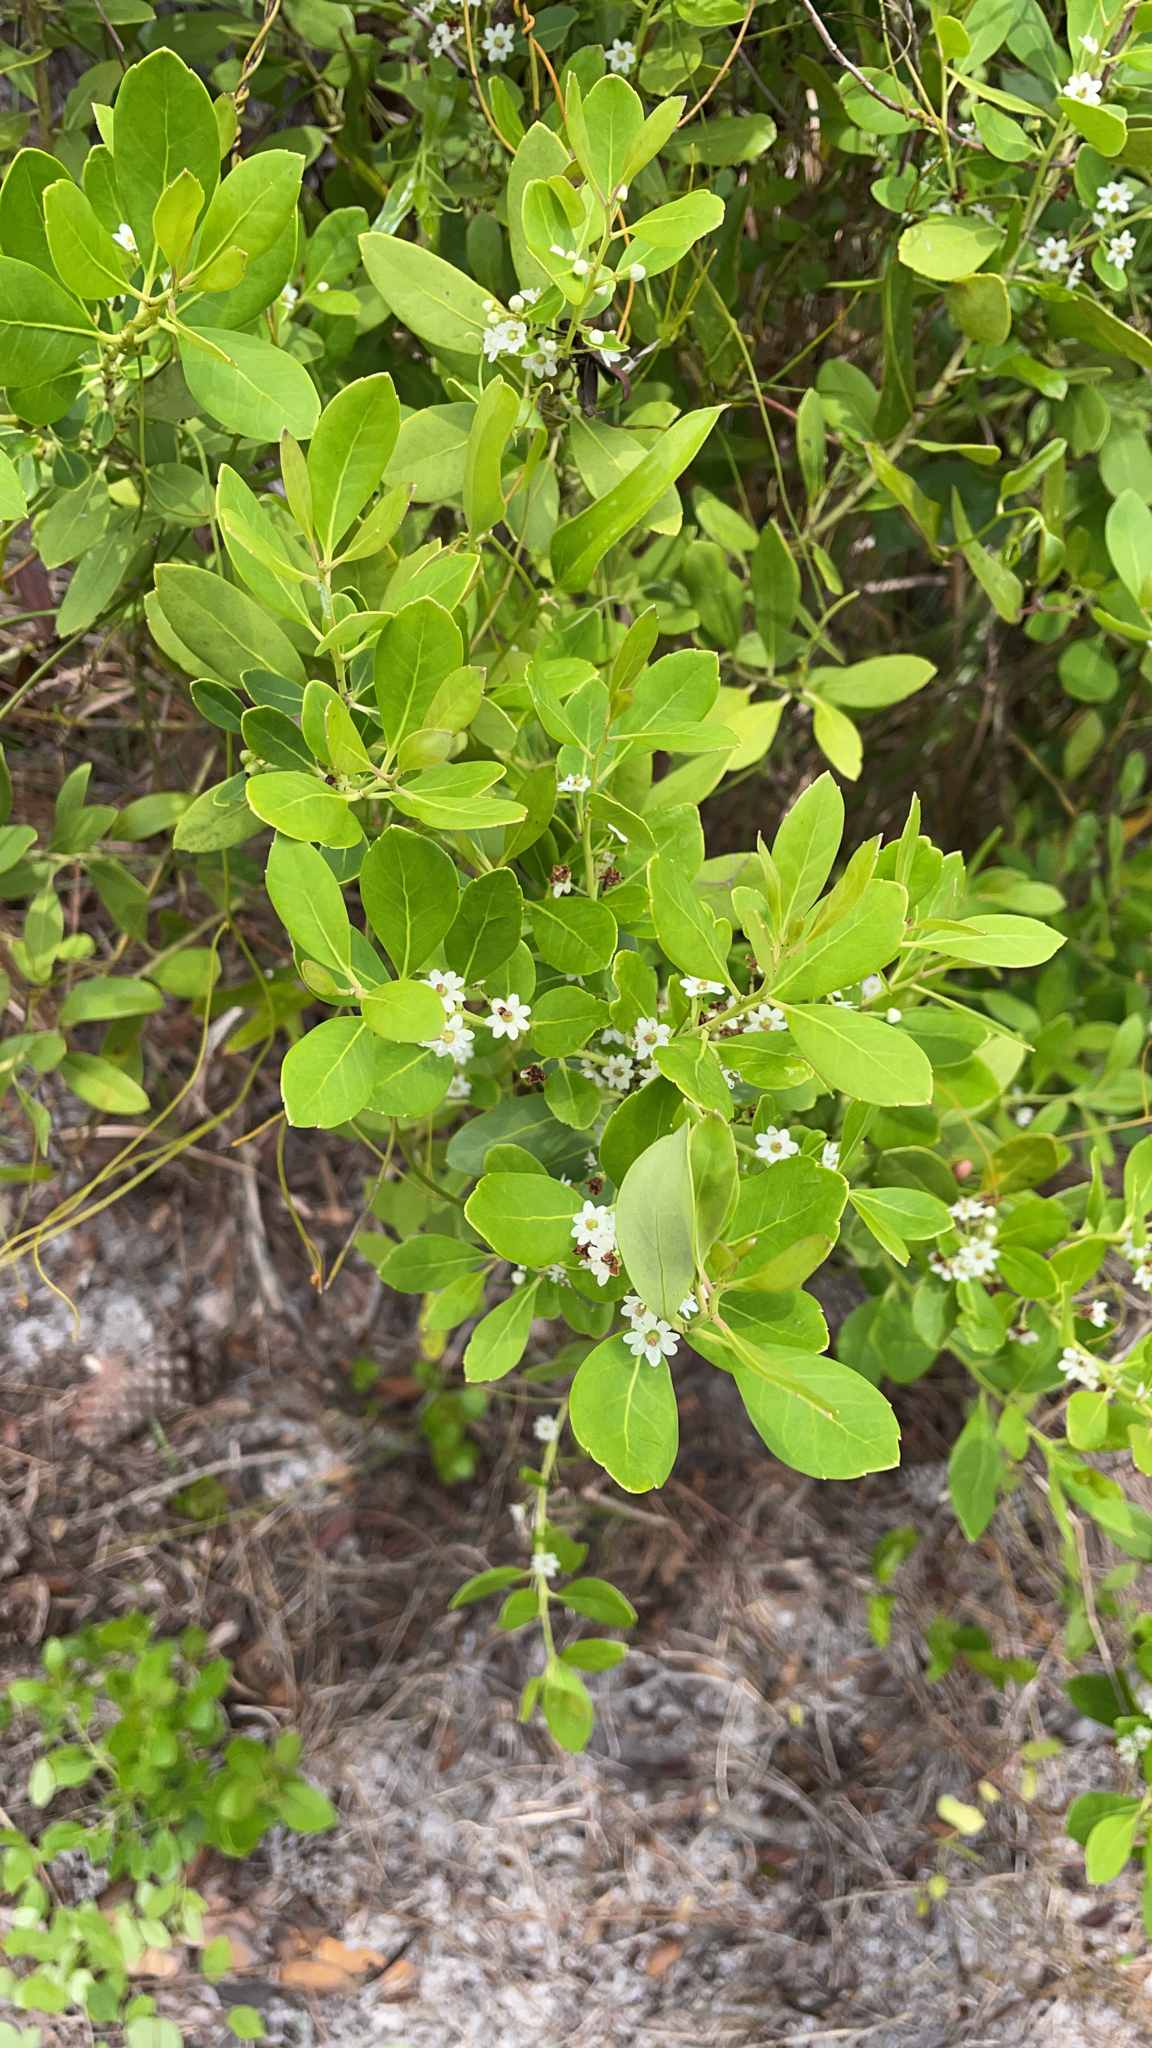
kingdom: Plantae
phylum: Tracheophyta
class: Magnoliopsida
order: Aquifoliales
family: Aquifoliaceae
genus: Ilex
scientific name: Ilex glabra
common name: Bitter gallberry
